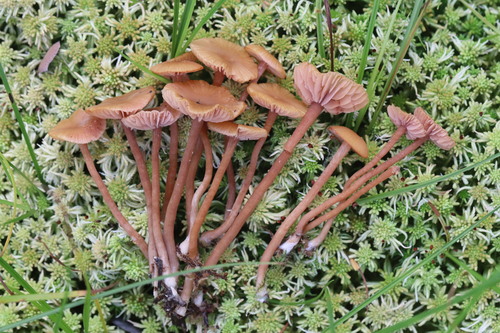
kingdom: Fungi
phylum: Basidiomycota
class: Agaricomycetes
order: Agaricales
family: Hydnangiaceae
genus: Laccaria
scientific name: Laccaria laccata
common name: Deceiver
